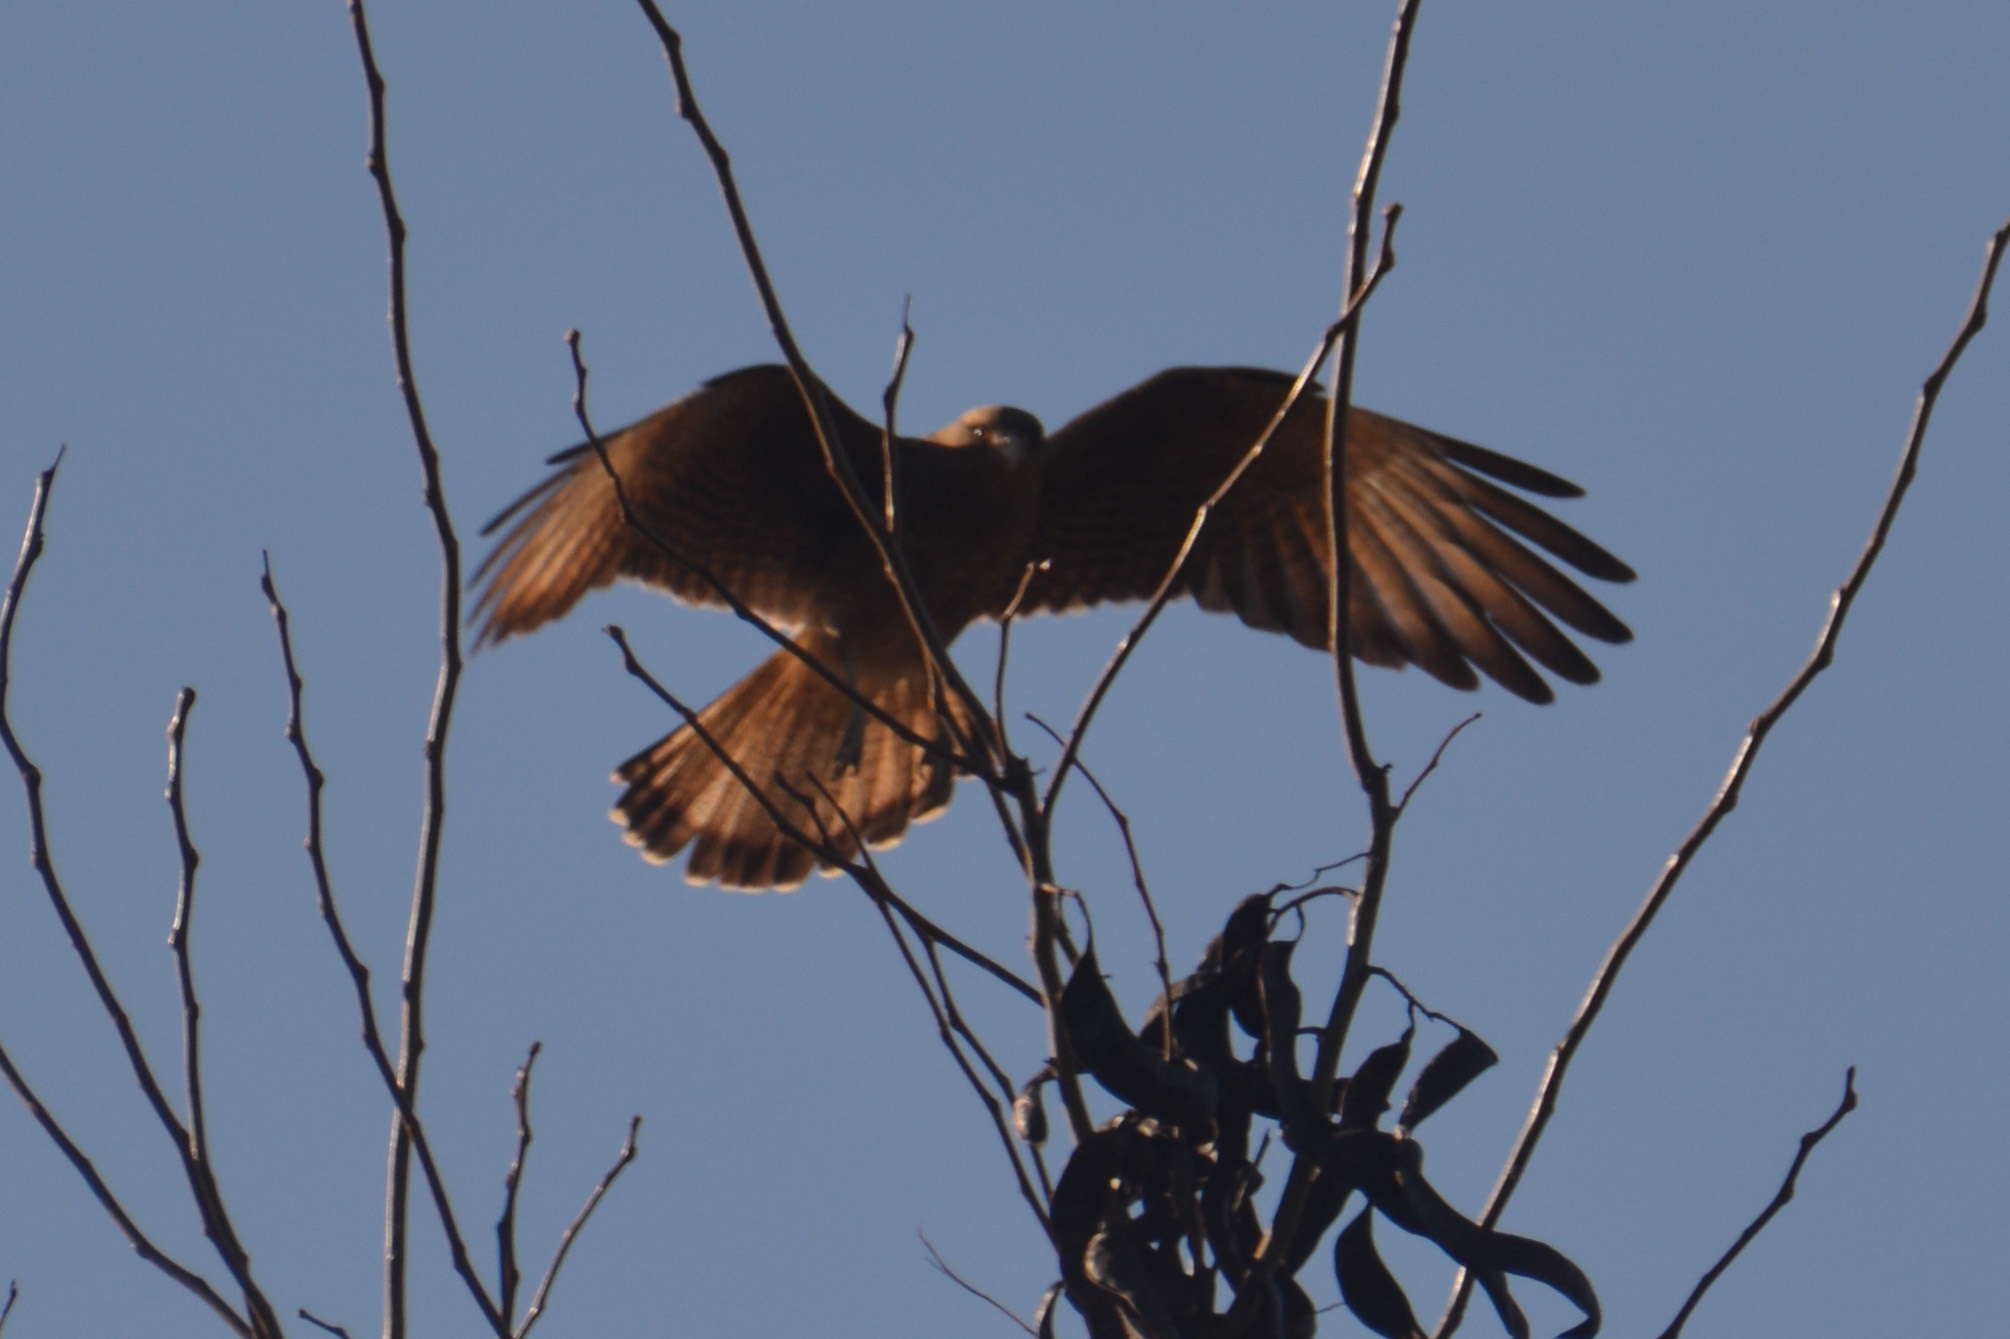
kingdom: Animalia
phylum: Chordata
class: Aves
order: Falconiformes
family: Falconidae
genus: Daptrius
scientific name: Daptrius
